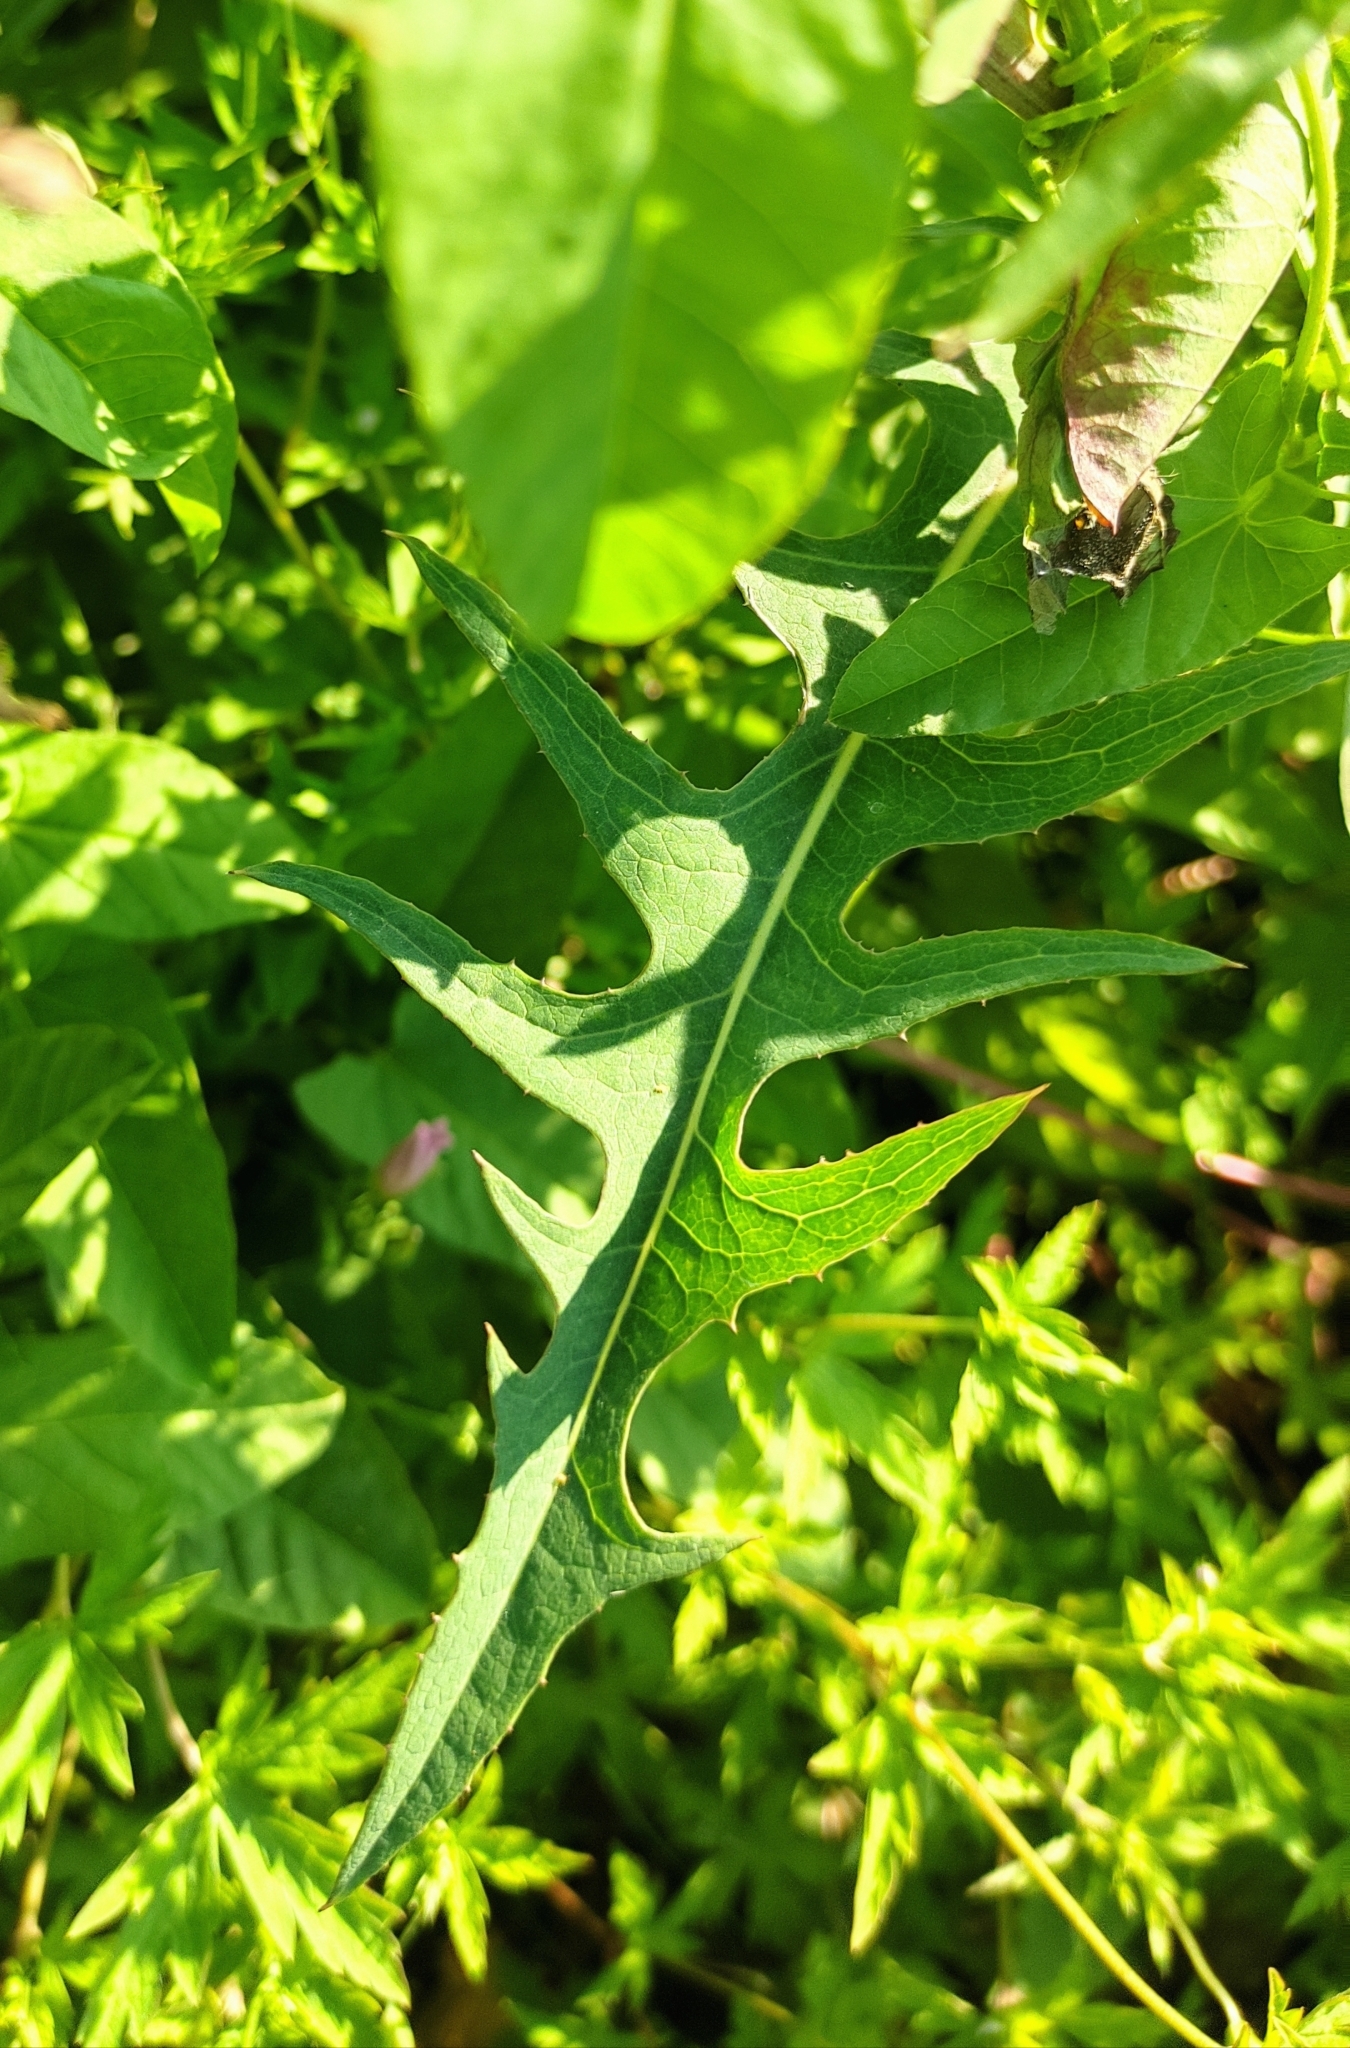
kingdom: Plantae
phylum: Tracheophyta
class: Magnoliopsida
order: Asterales
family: Asteraceae
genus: Lactuca
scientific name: Lactuca tatarica
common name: Blue lettuce
